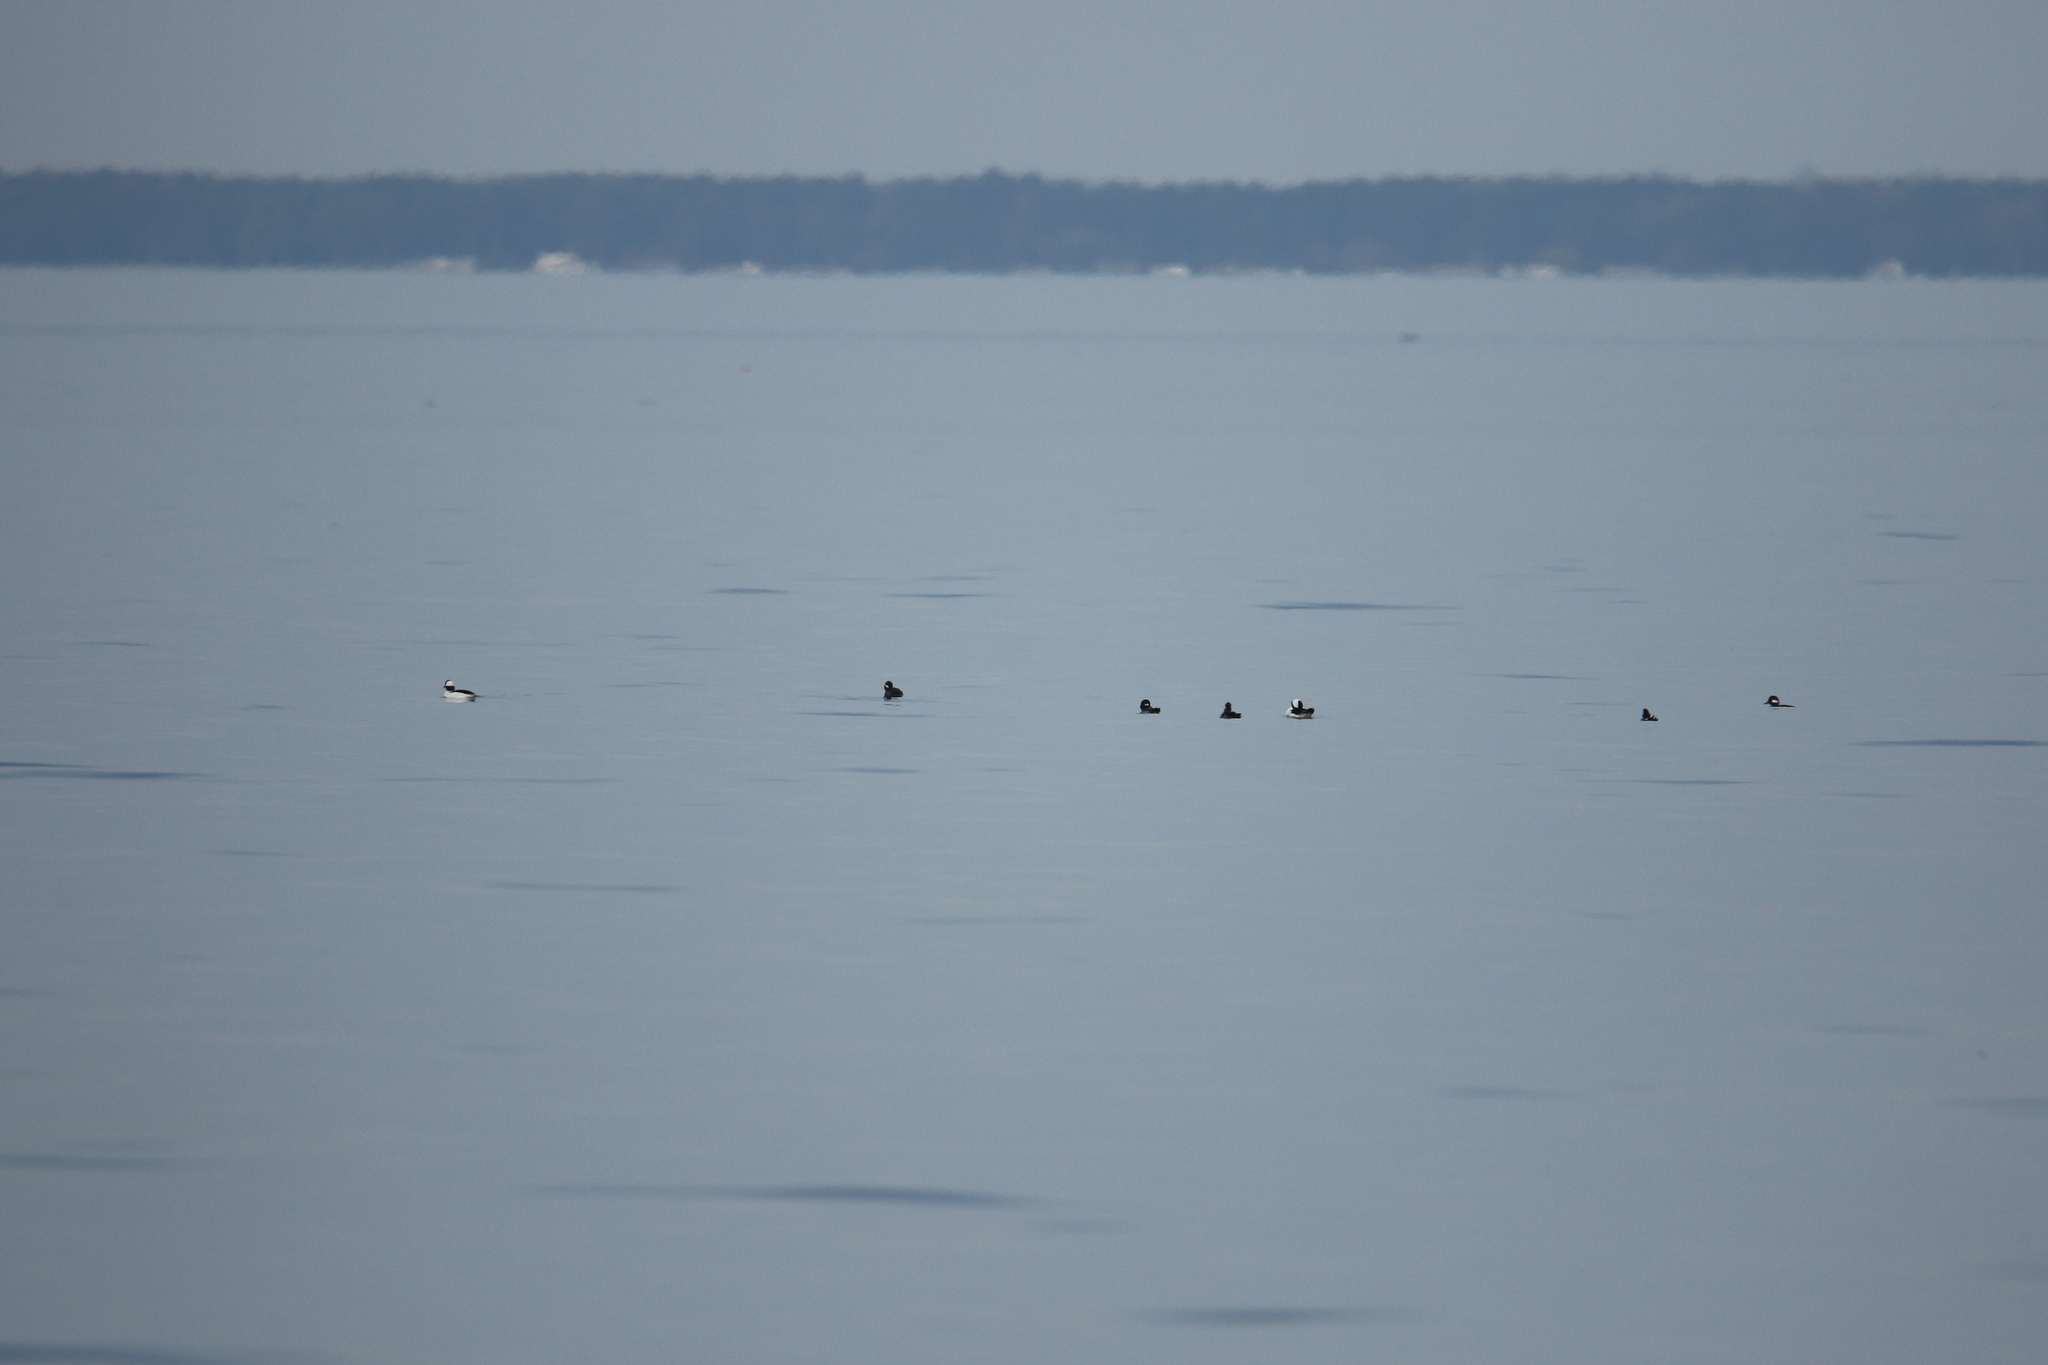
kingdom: Animalia
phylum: Chordata
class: Aves
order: Anseriformes
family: Anatidae
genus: Bucephala
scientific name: Bucephala albeola
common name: Bufflehead
